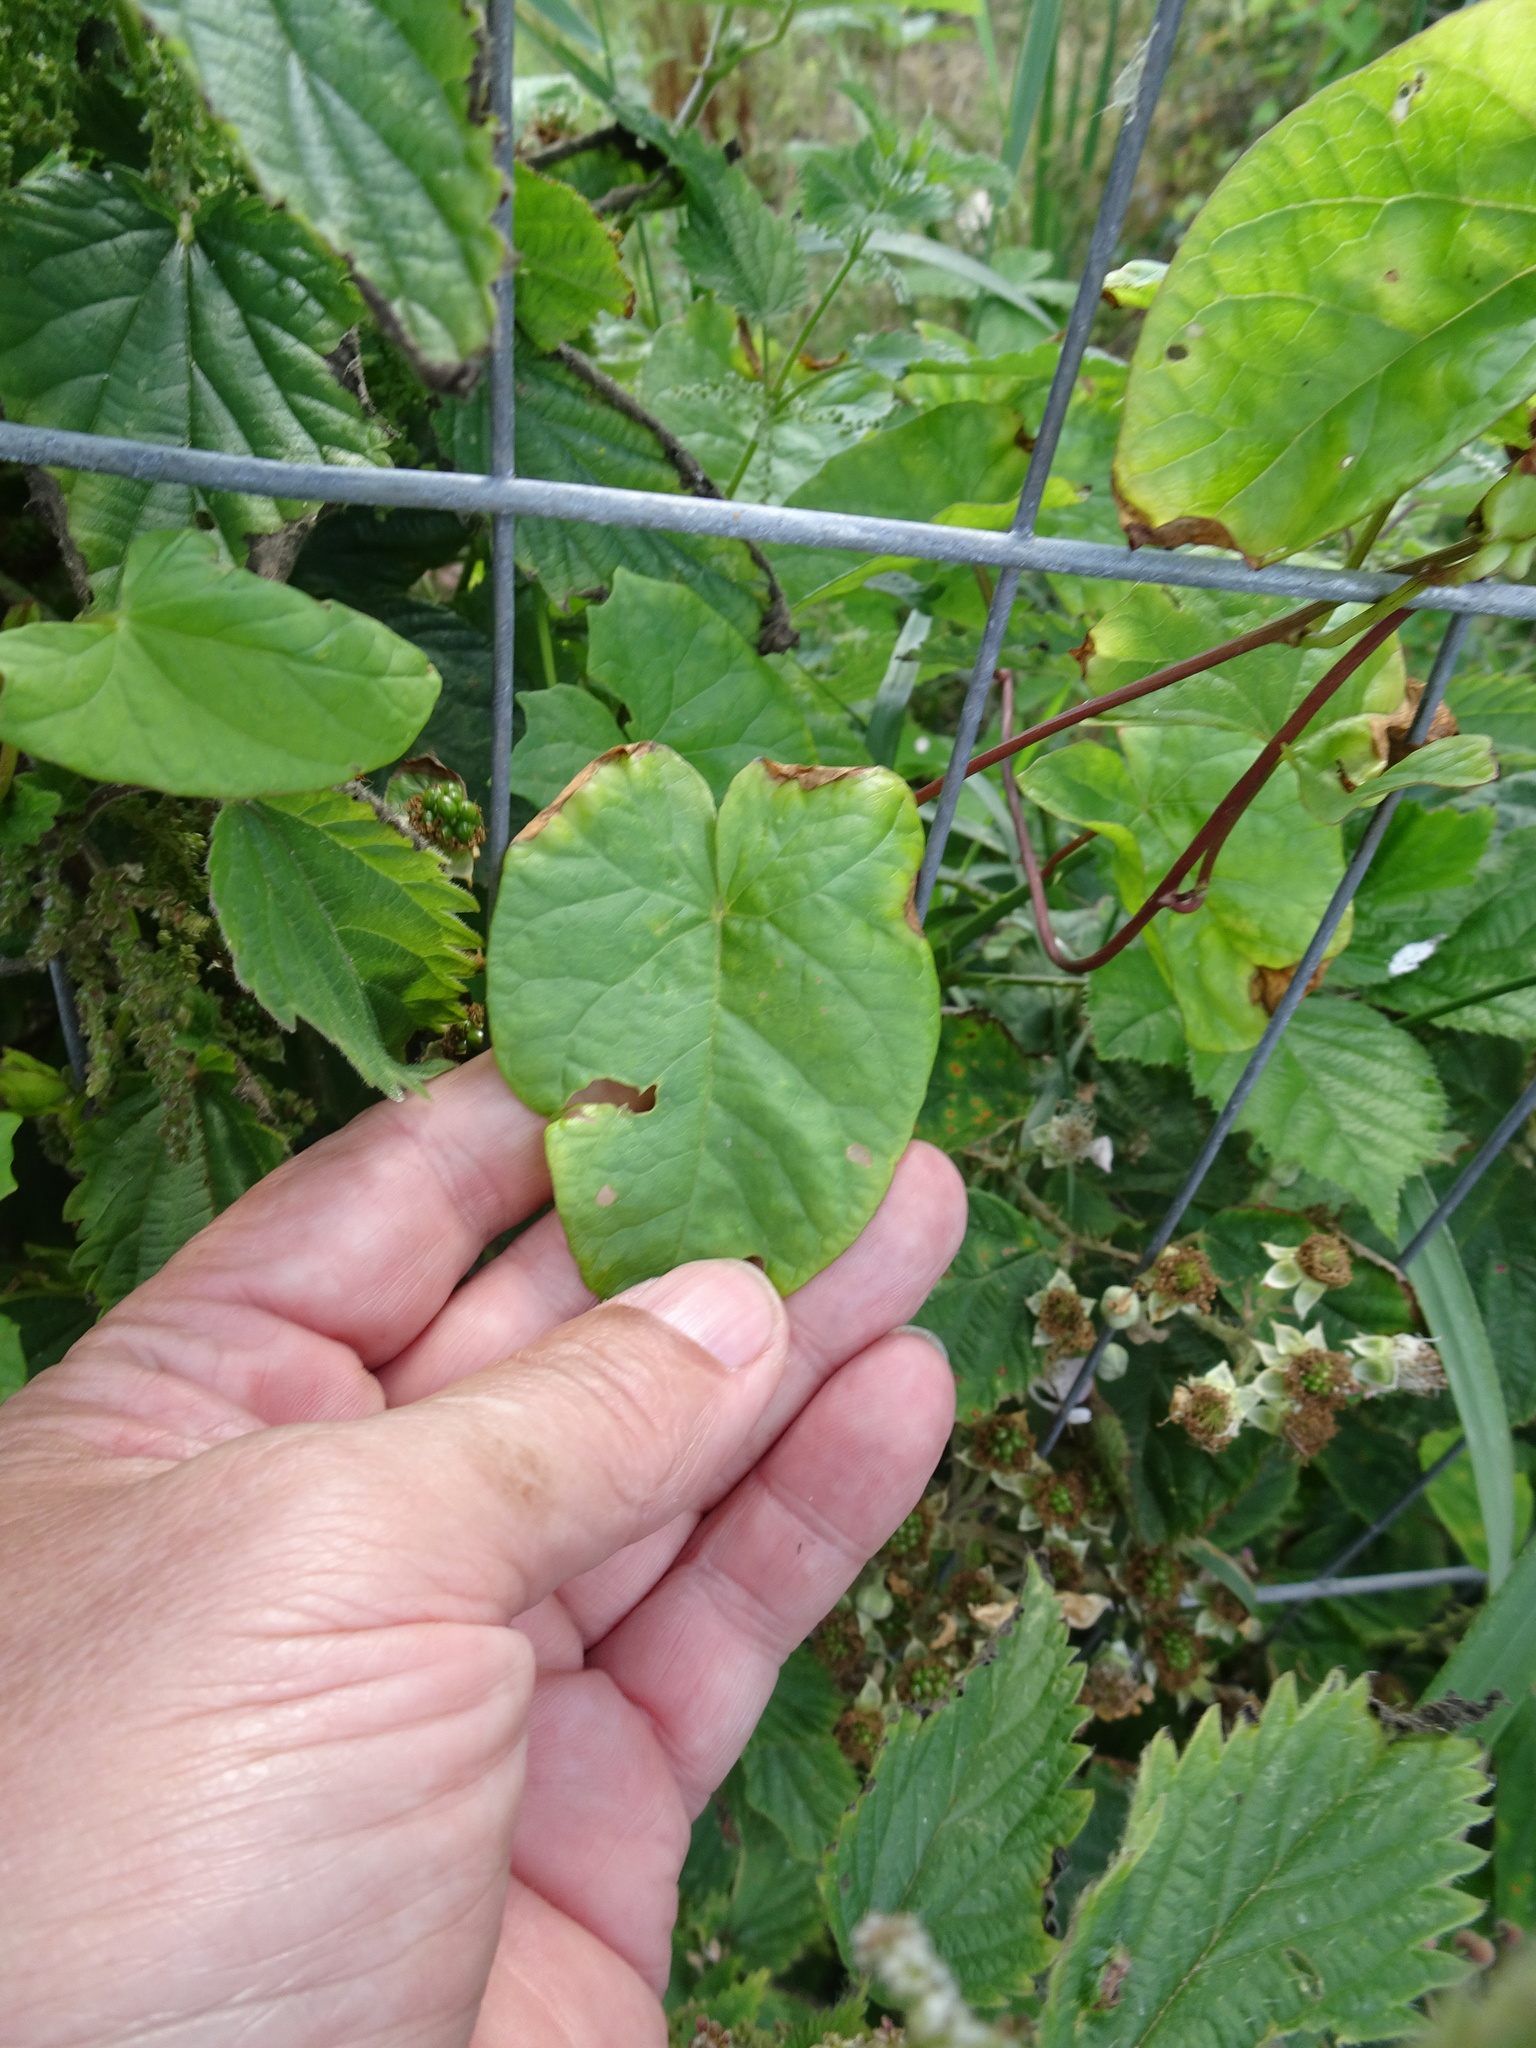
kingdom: Plantae
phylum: Tracheophyta
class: Magnoliopsida
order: Solanales
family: Convolvulaceae
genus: Calystegia
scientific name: Calystegia sepium
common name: Hedge bindweed
